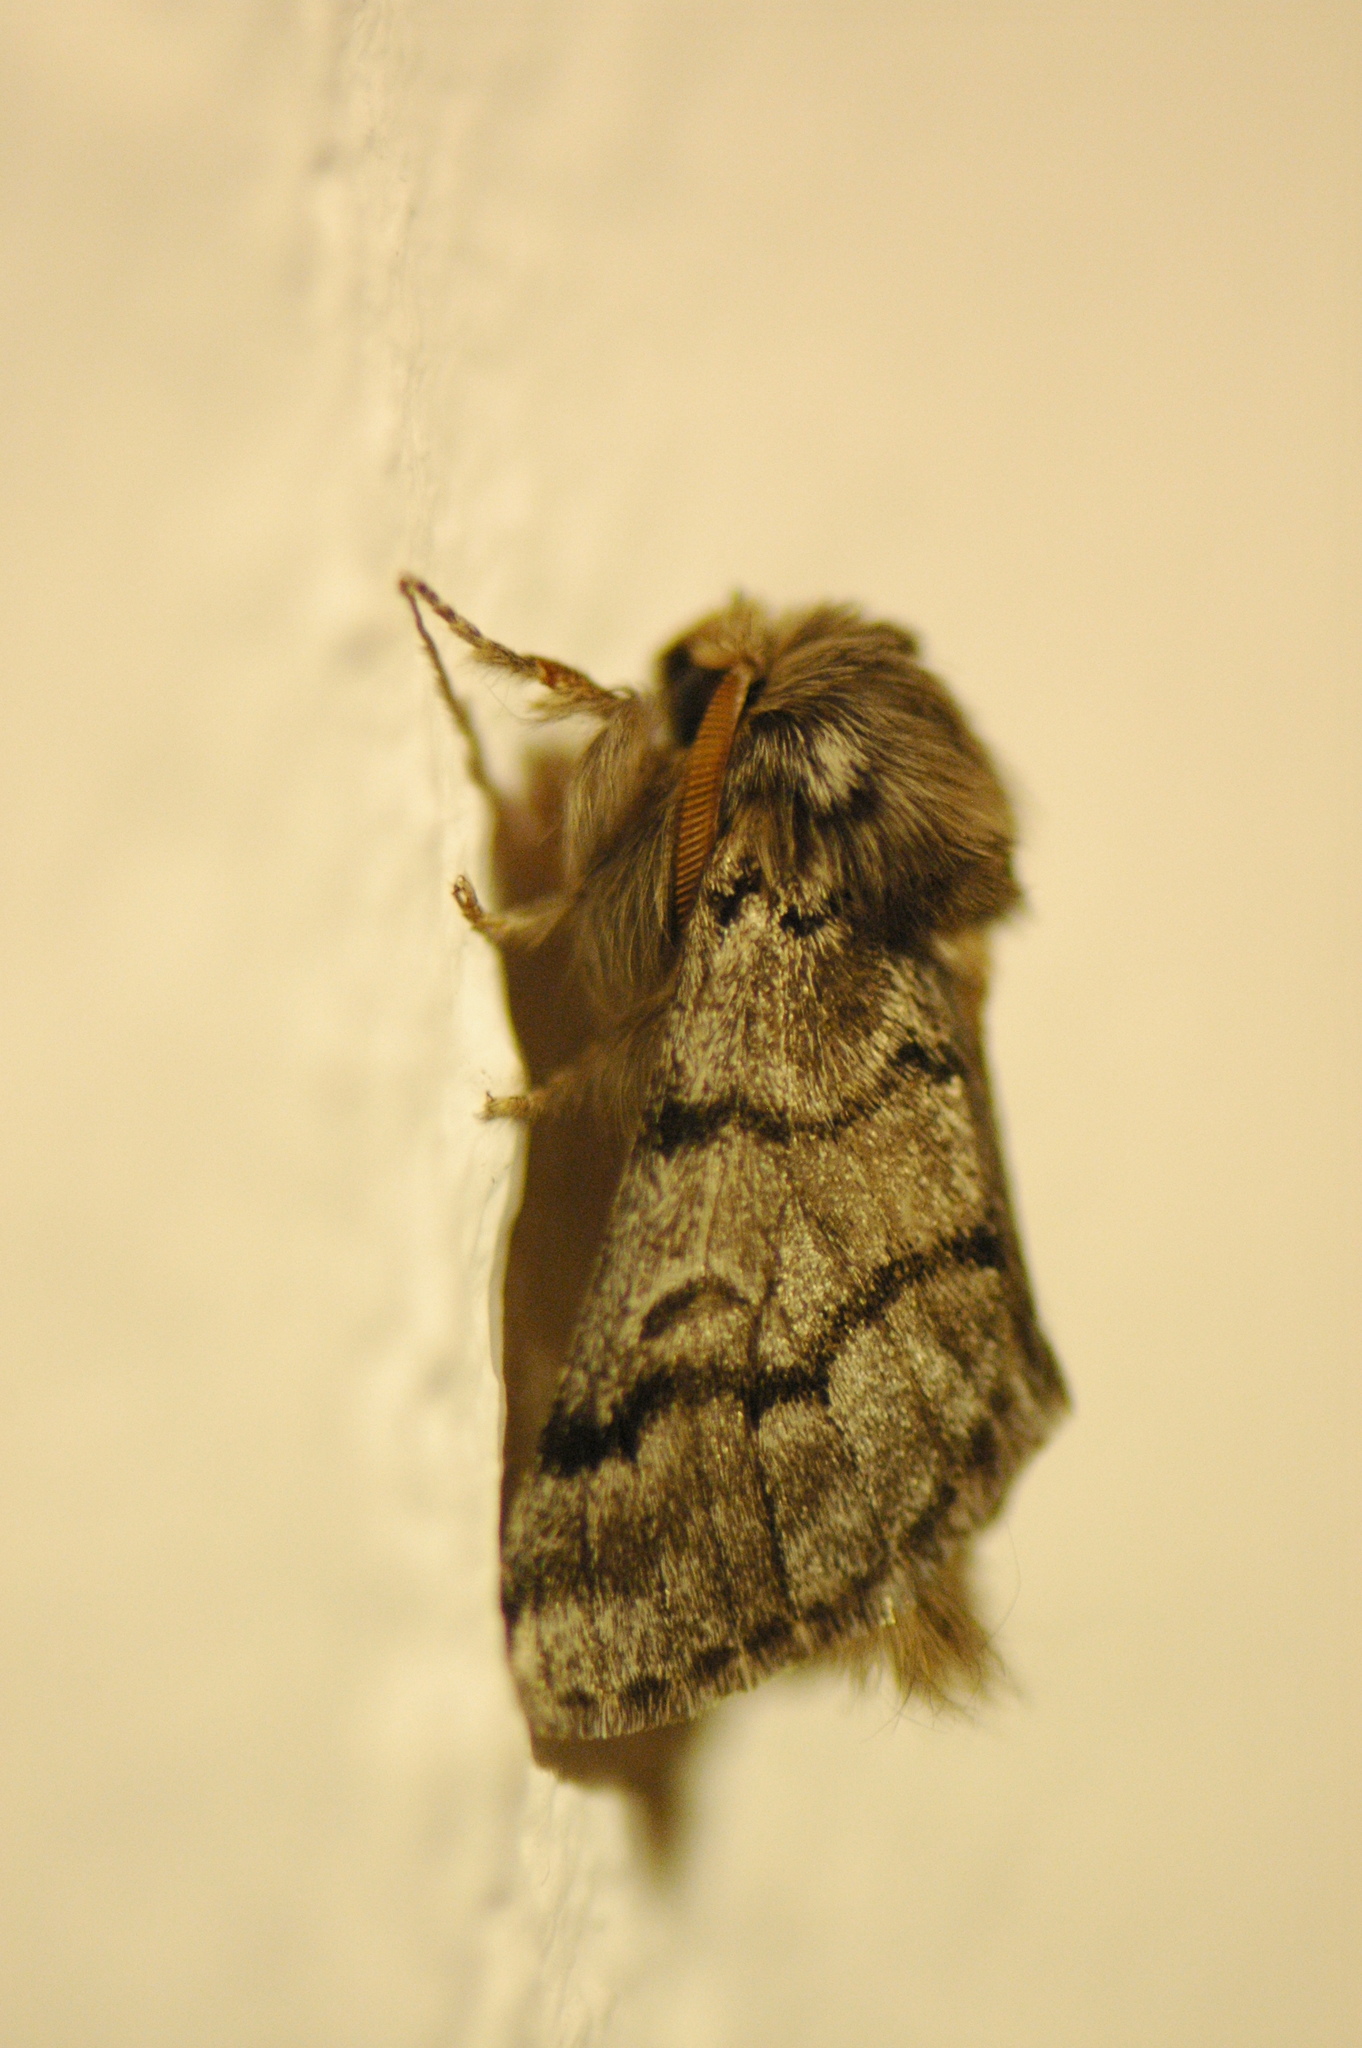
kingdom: Animalia
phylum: Arthropoda
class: Insecta
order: Lepidoptera
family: Notodontidae
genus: Thaumetopoea
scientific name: Thaumetopoea pityocampa
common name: Pine processionary
